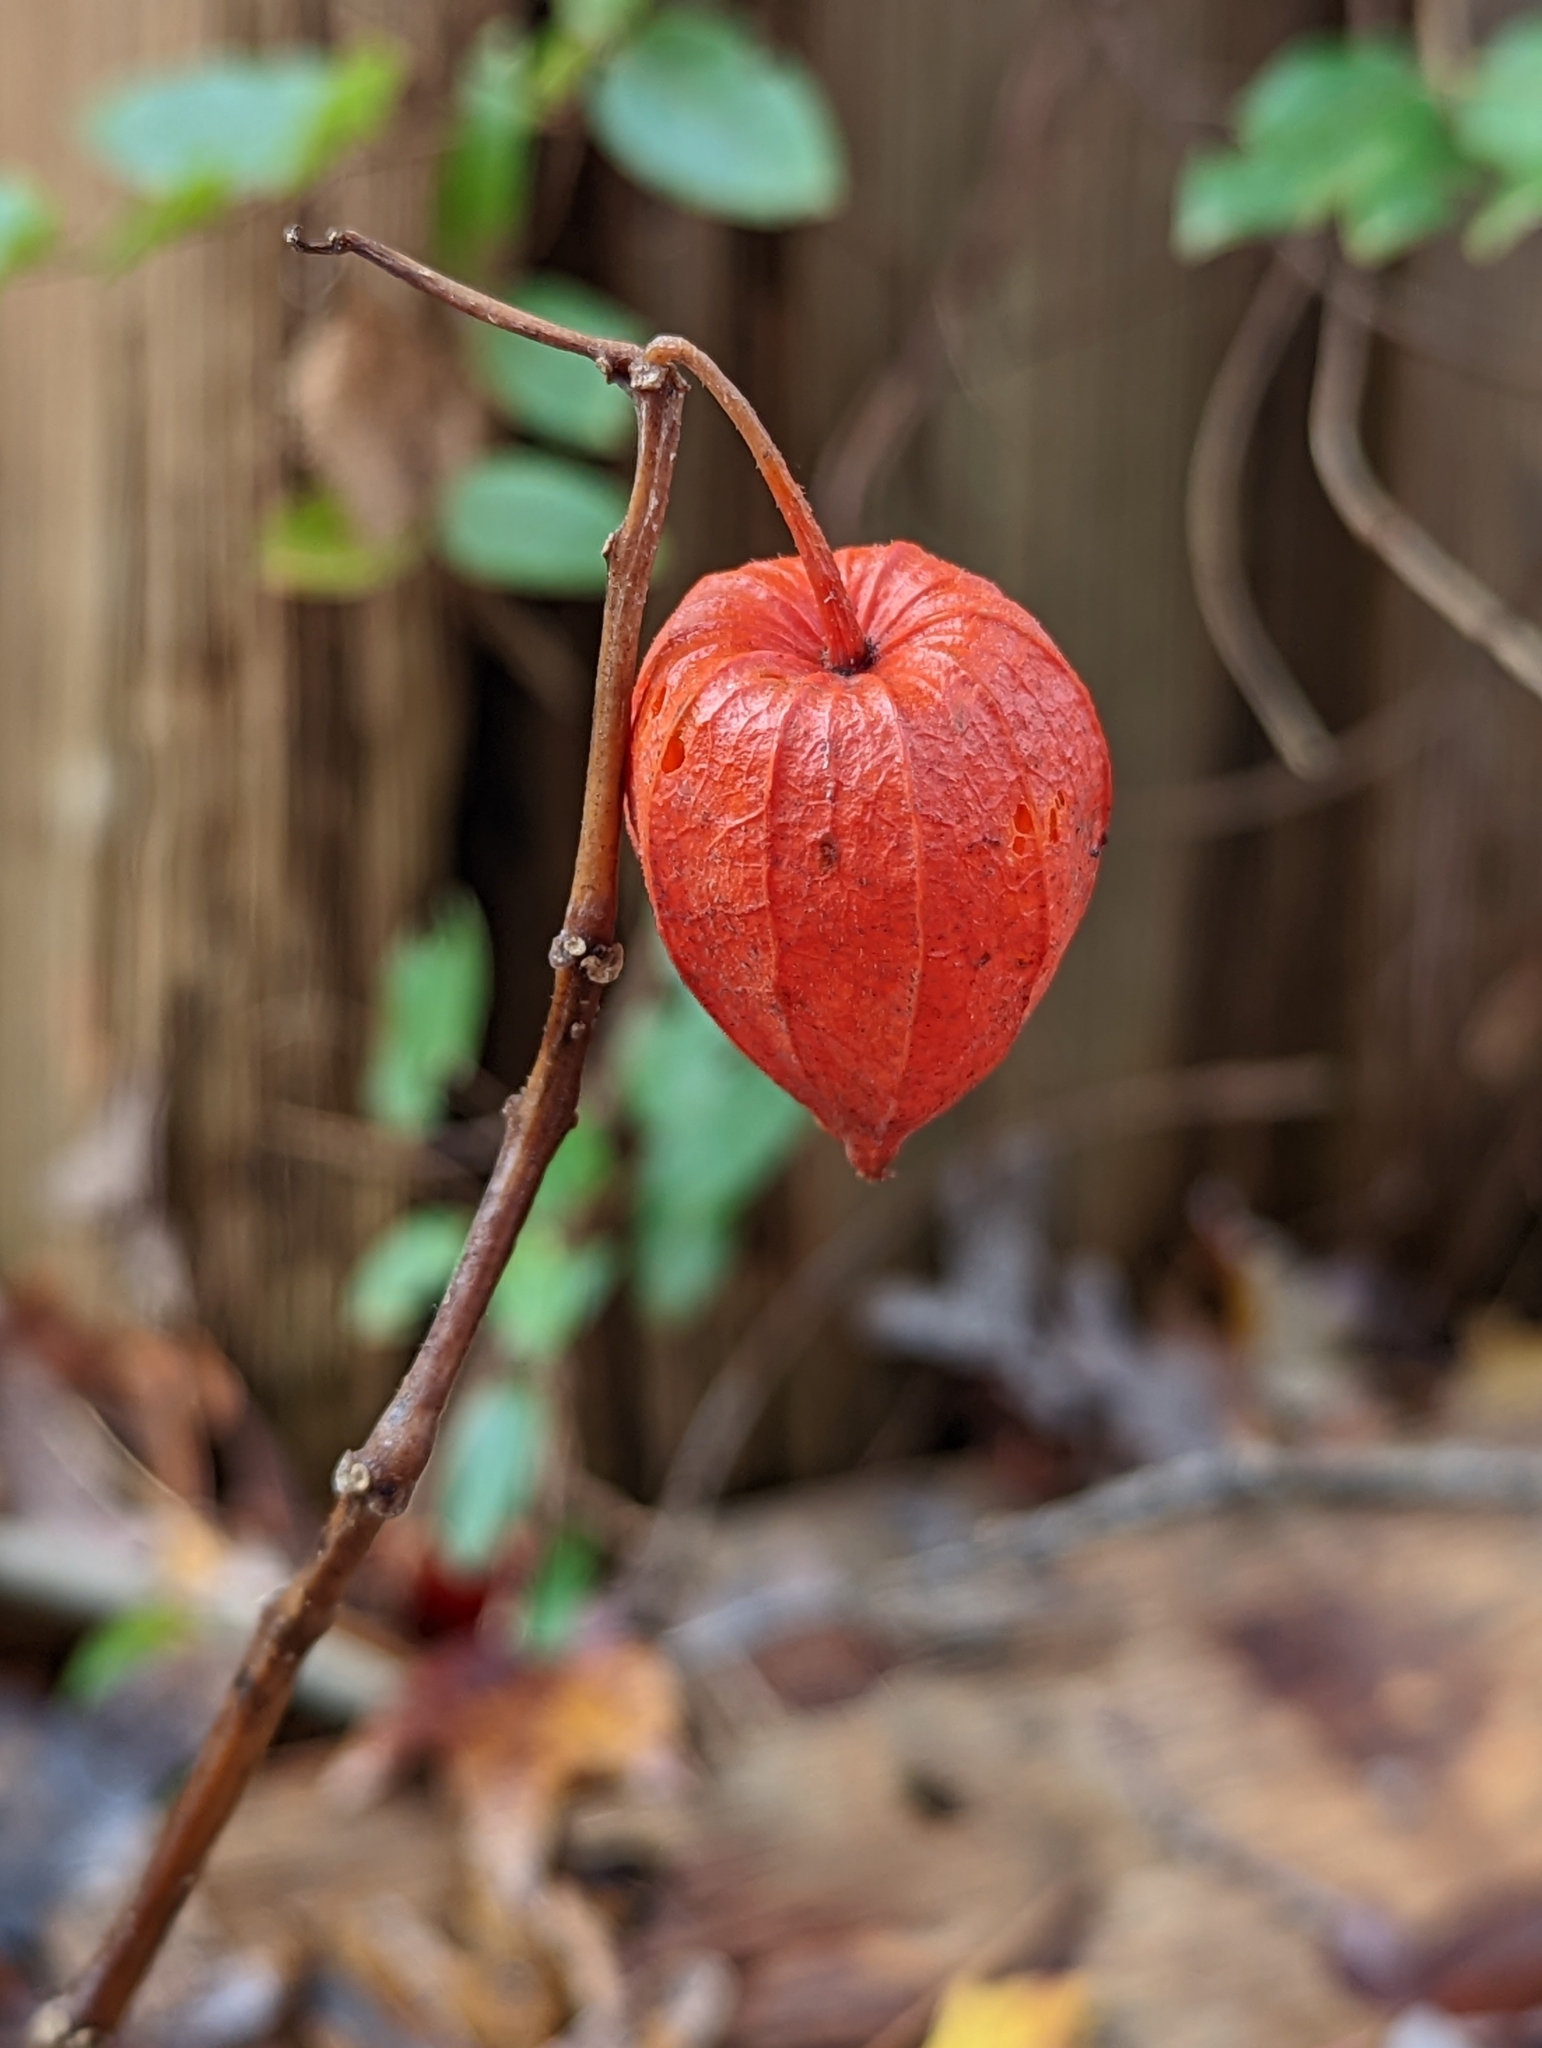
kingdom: Plantae
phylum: Tracheophyta
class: Magnoliopsida
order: Solanales
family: Solanaceae
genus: Alkekengi
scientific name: Alkekengi officinarum
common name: Japanese-lantern
